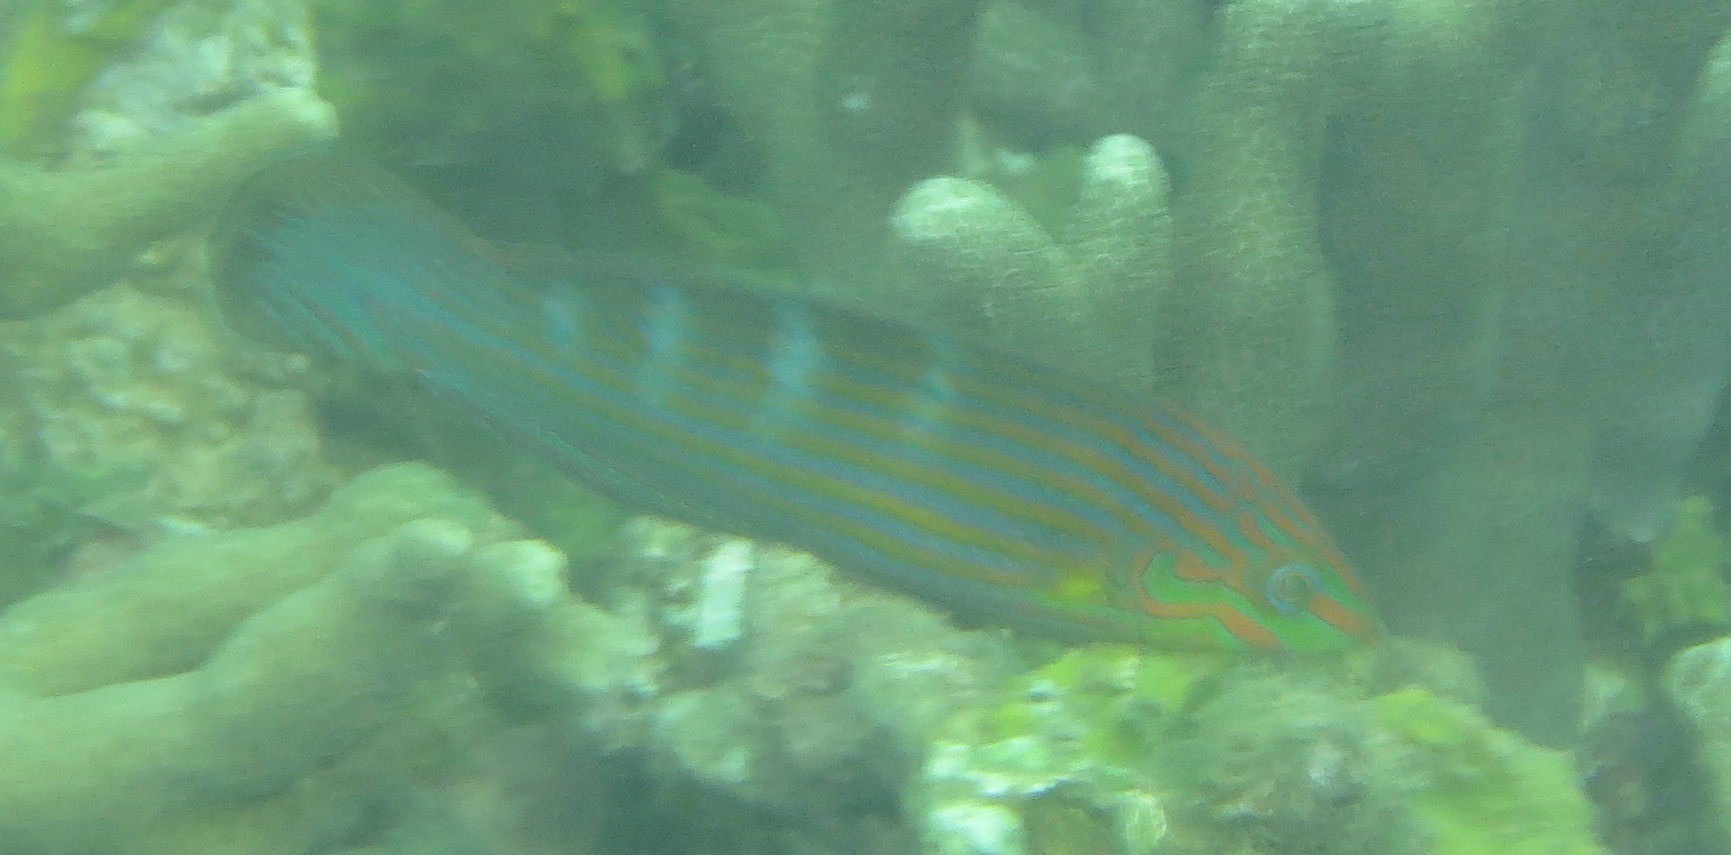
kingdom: Animalia
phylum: Chordata
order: Perciformes
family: Labridae
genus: Halichoeres
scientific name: Halichoeres melanurus
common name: Hoeven's wrasse
